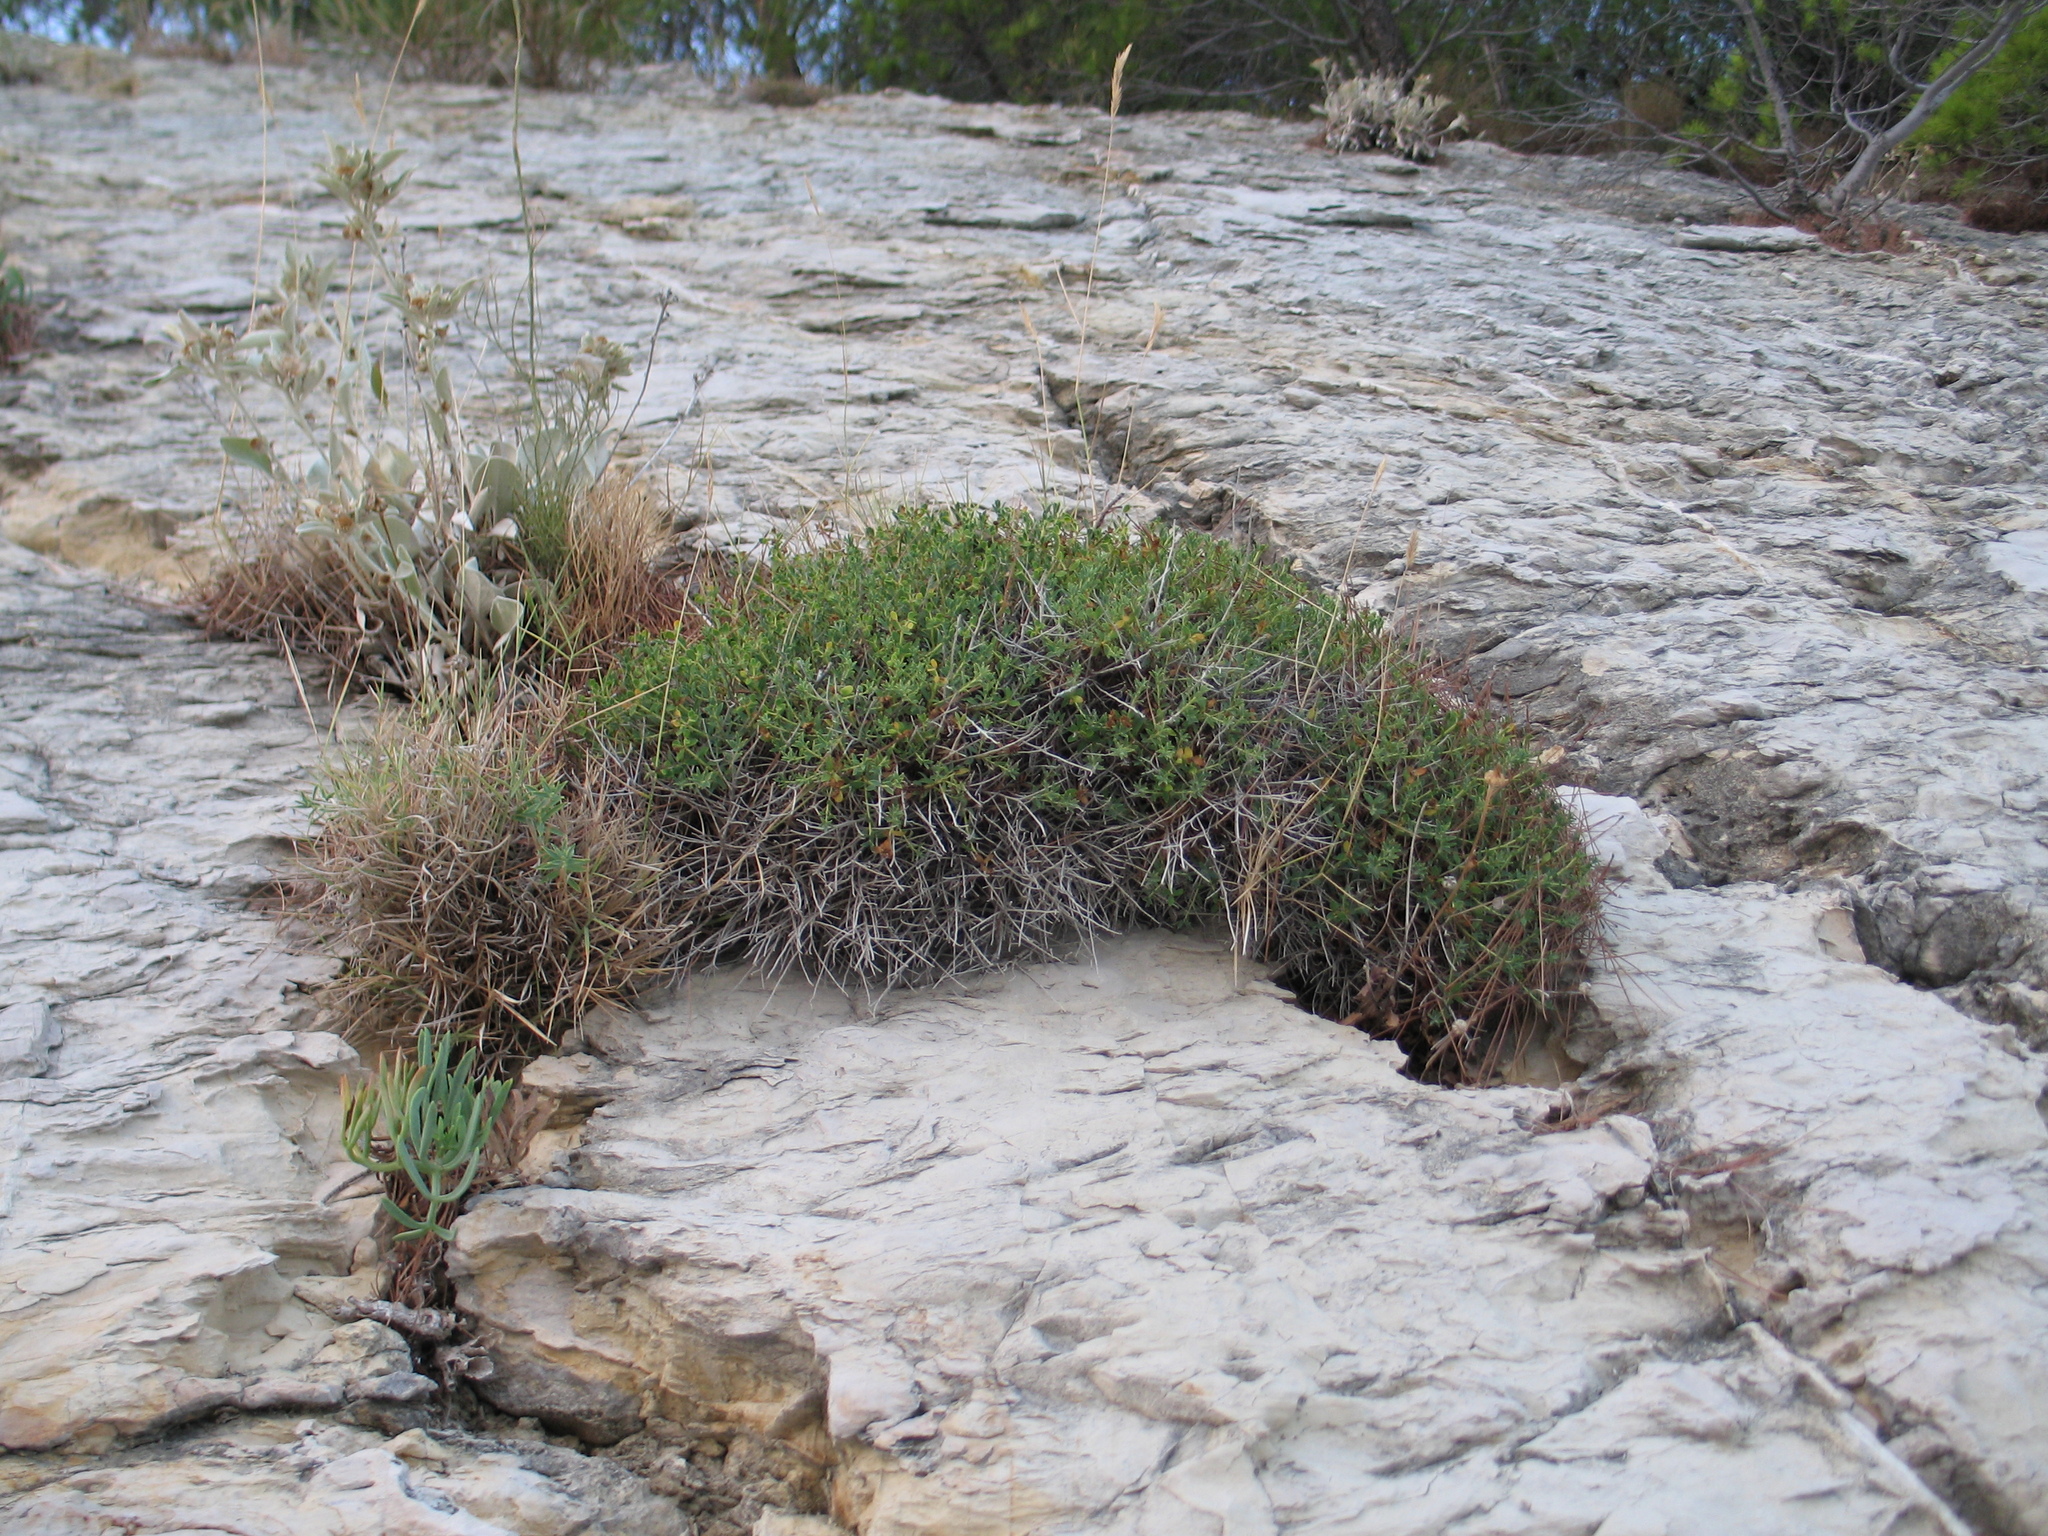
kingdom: Plantae
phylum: Tracheophyta
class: Magnoliopsida
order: Malpighiales
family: Euphorbiaceae
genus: Euphorbia
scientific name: Euphorbia spinosa
